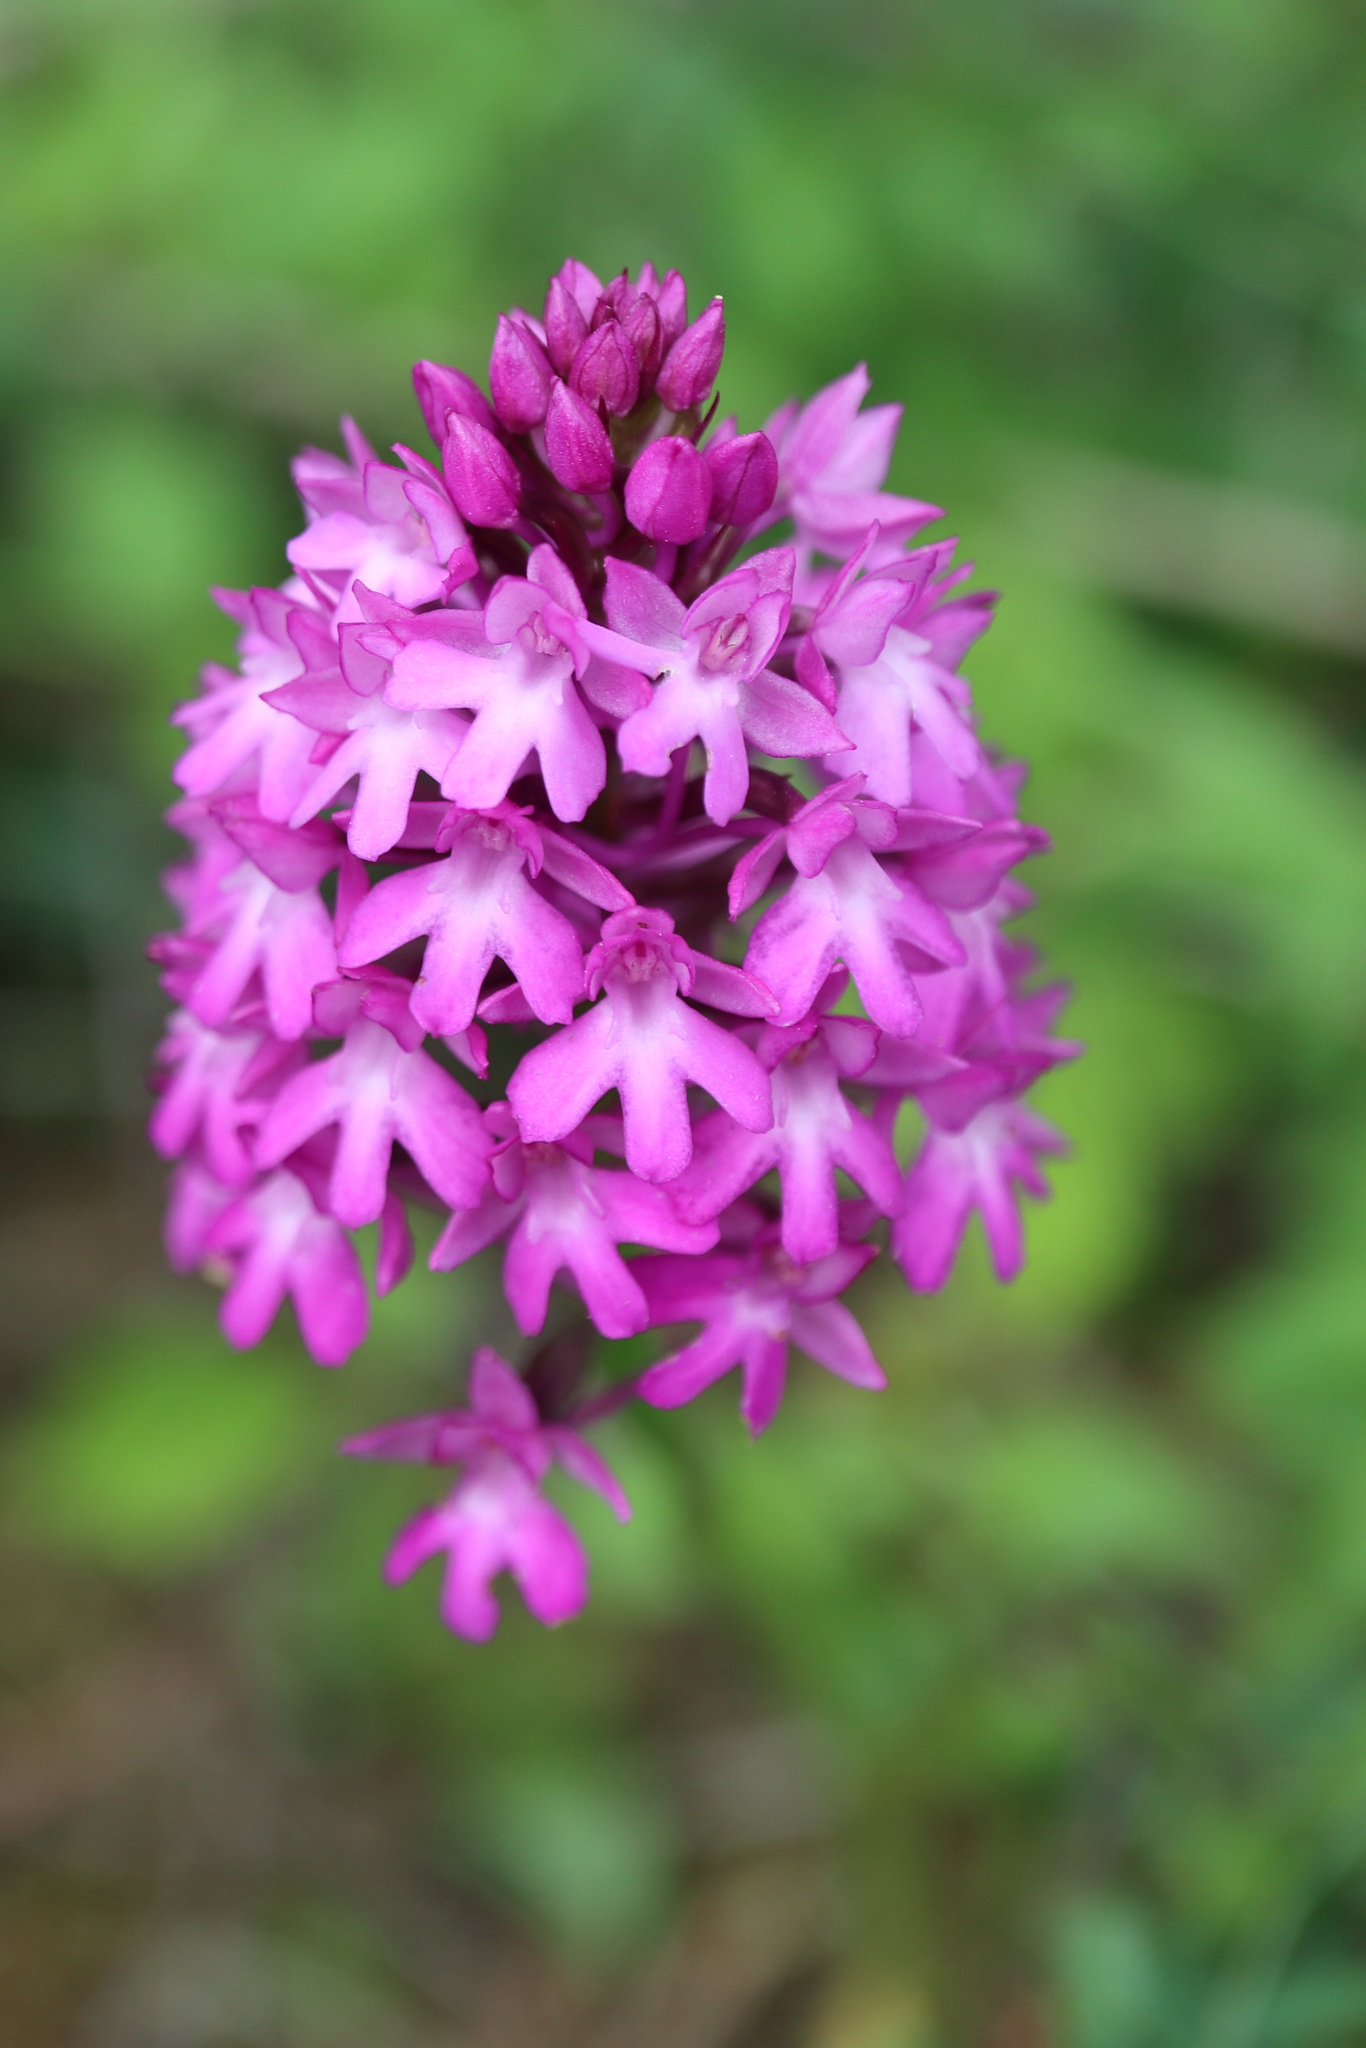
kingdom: Plantae
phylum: Tracheophyta
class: Liliopsida
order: Asparagales
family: Orchidaceae
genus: Anacamptis
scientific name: Anacamptis pyramidalis
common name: Pyramidal orchid
